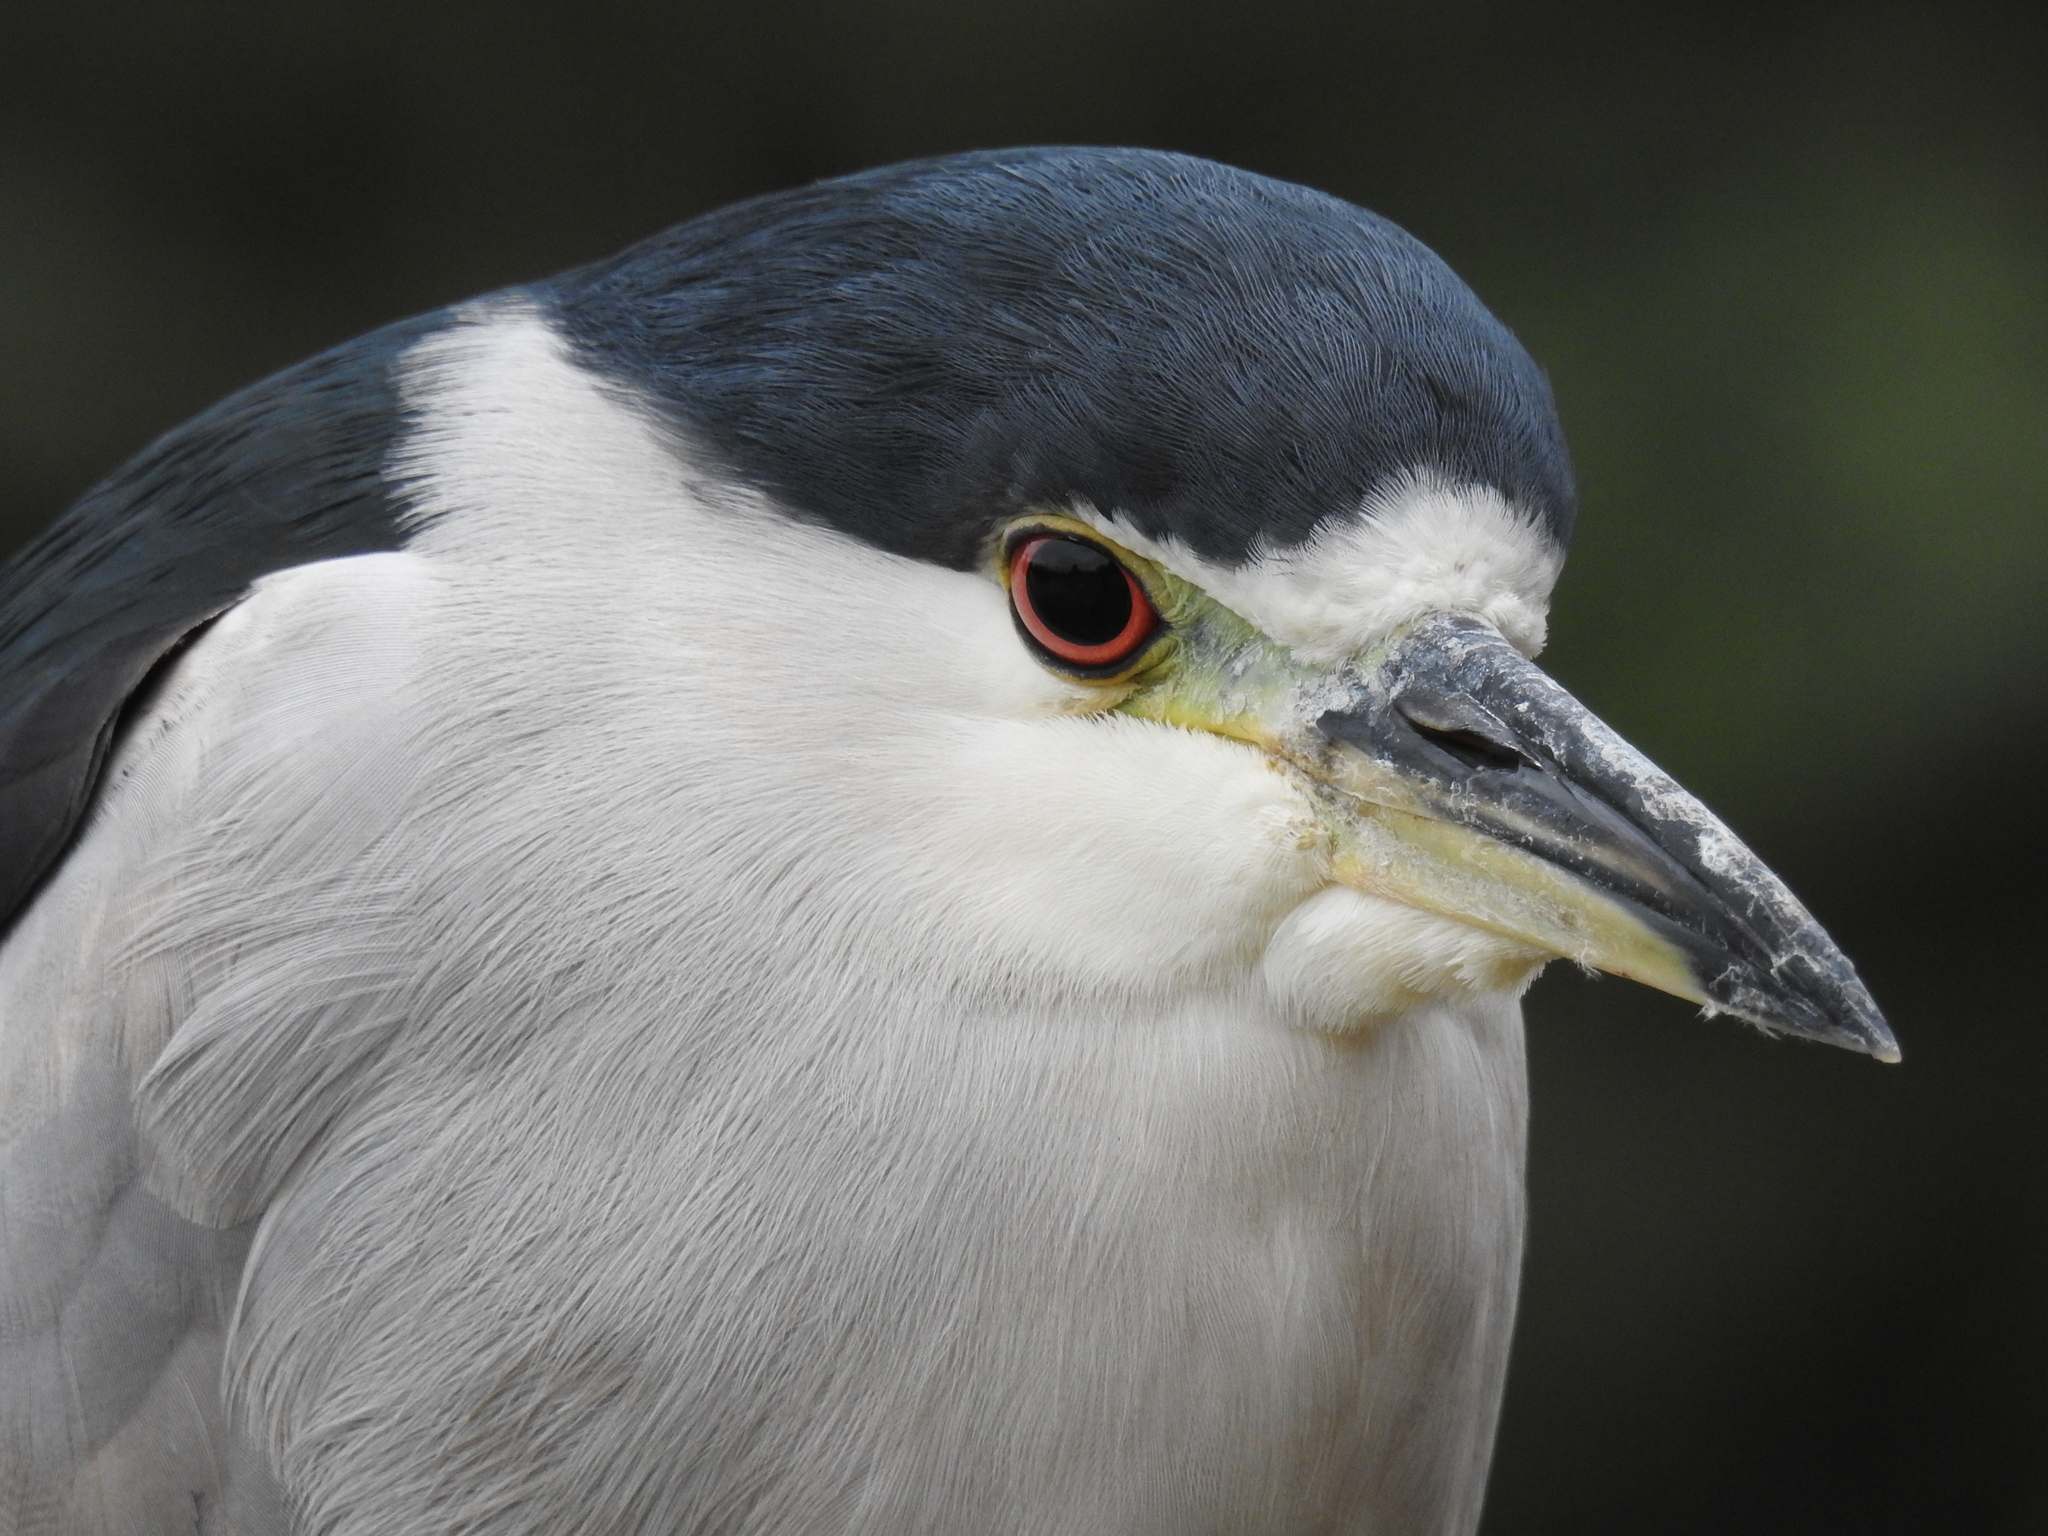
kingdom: Animalia
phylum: Chordata
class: Aves
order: Pelecaniformes
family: Ardeidae
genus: Nycticorax
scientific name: Nycticorax nycticorax
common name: Black-crowned night heron
